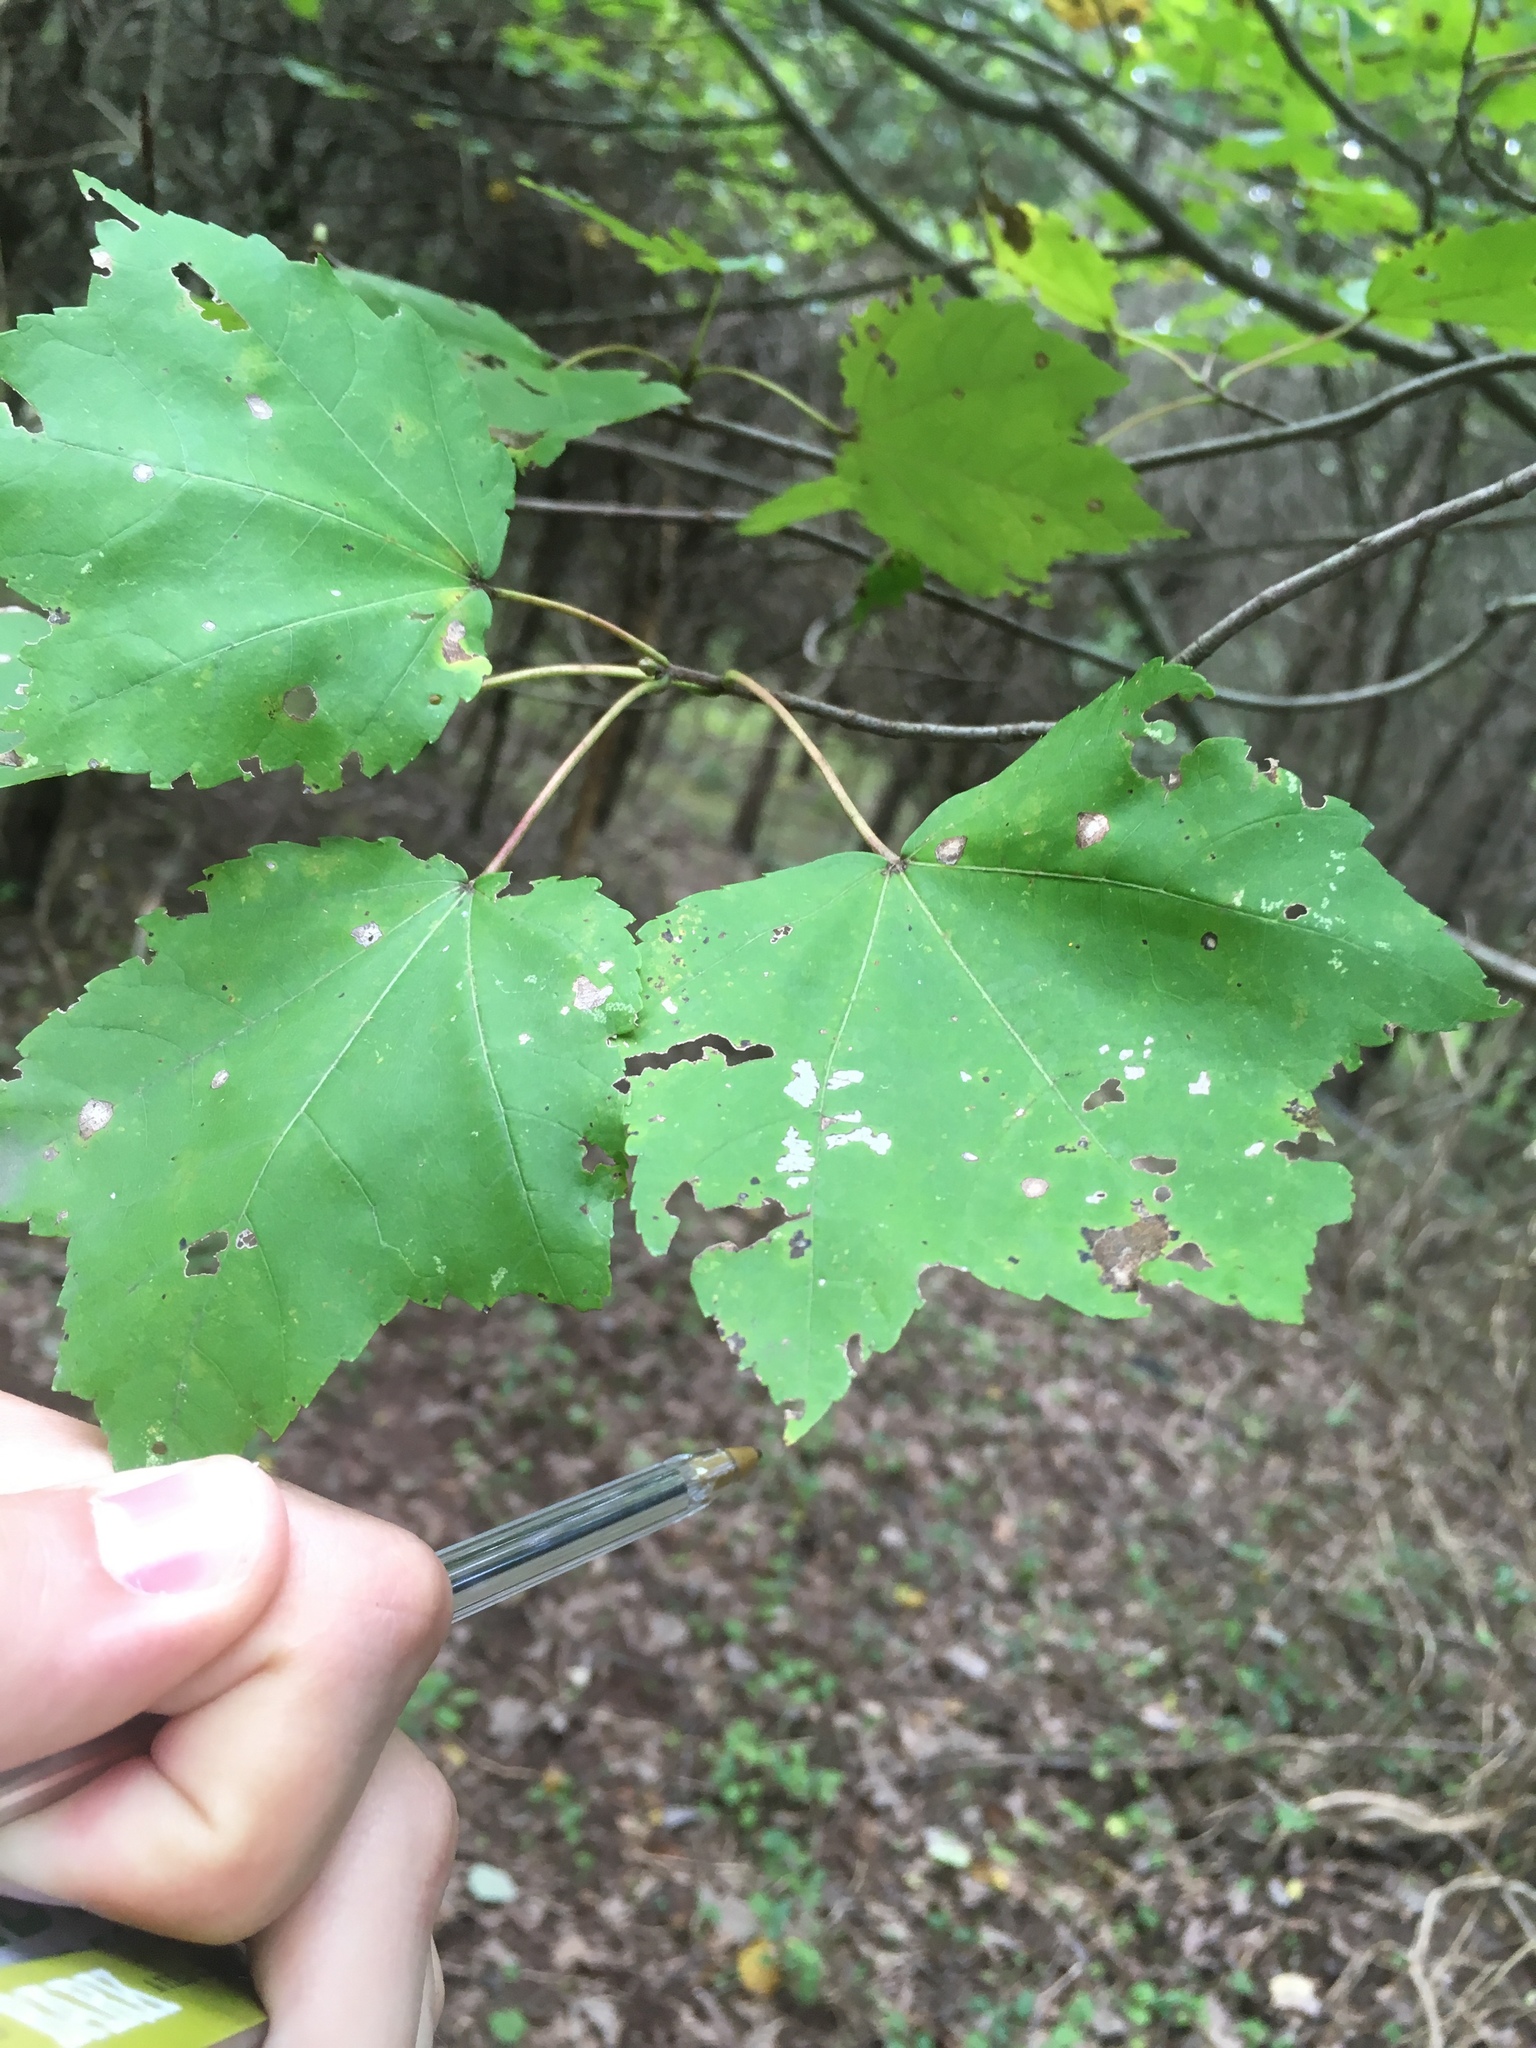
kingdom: Plantae
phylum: Tracheophyta
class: Magnoliopsida
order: Sapindales
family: Sapindaceae
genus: Acer
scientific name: Acer rubrum
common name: Red maple
